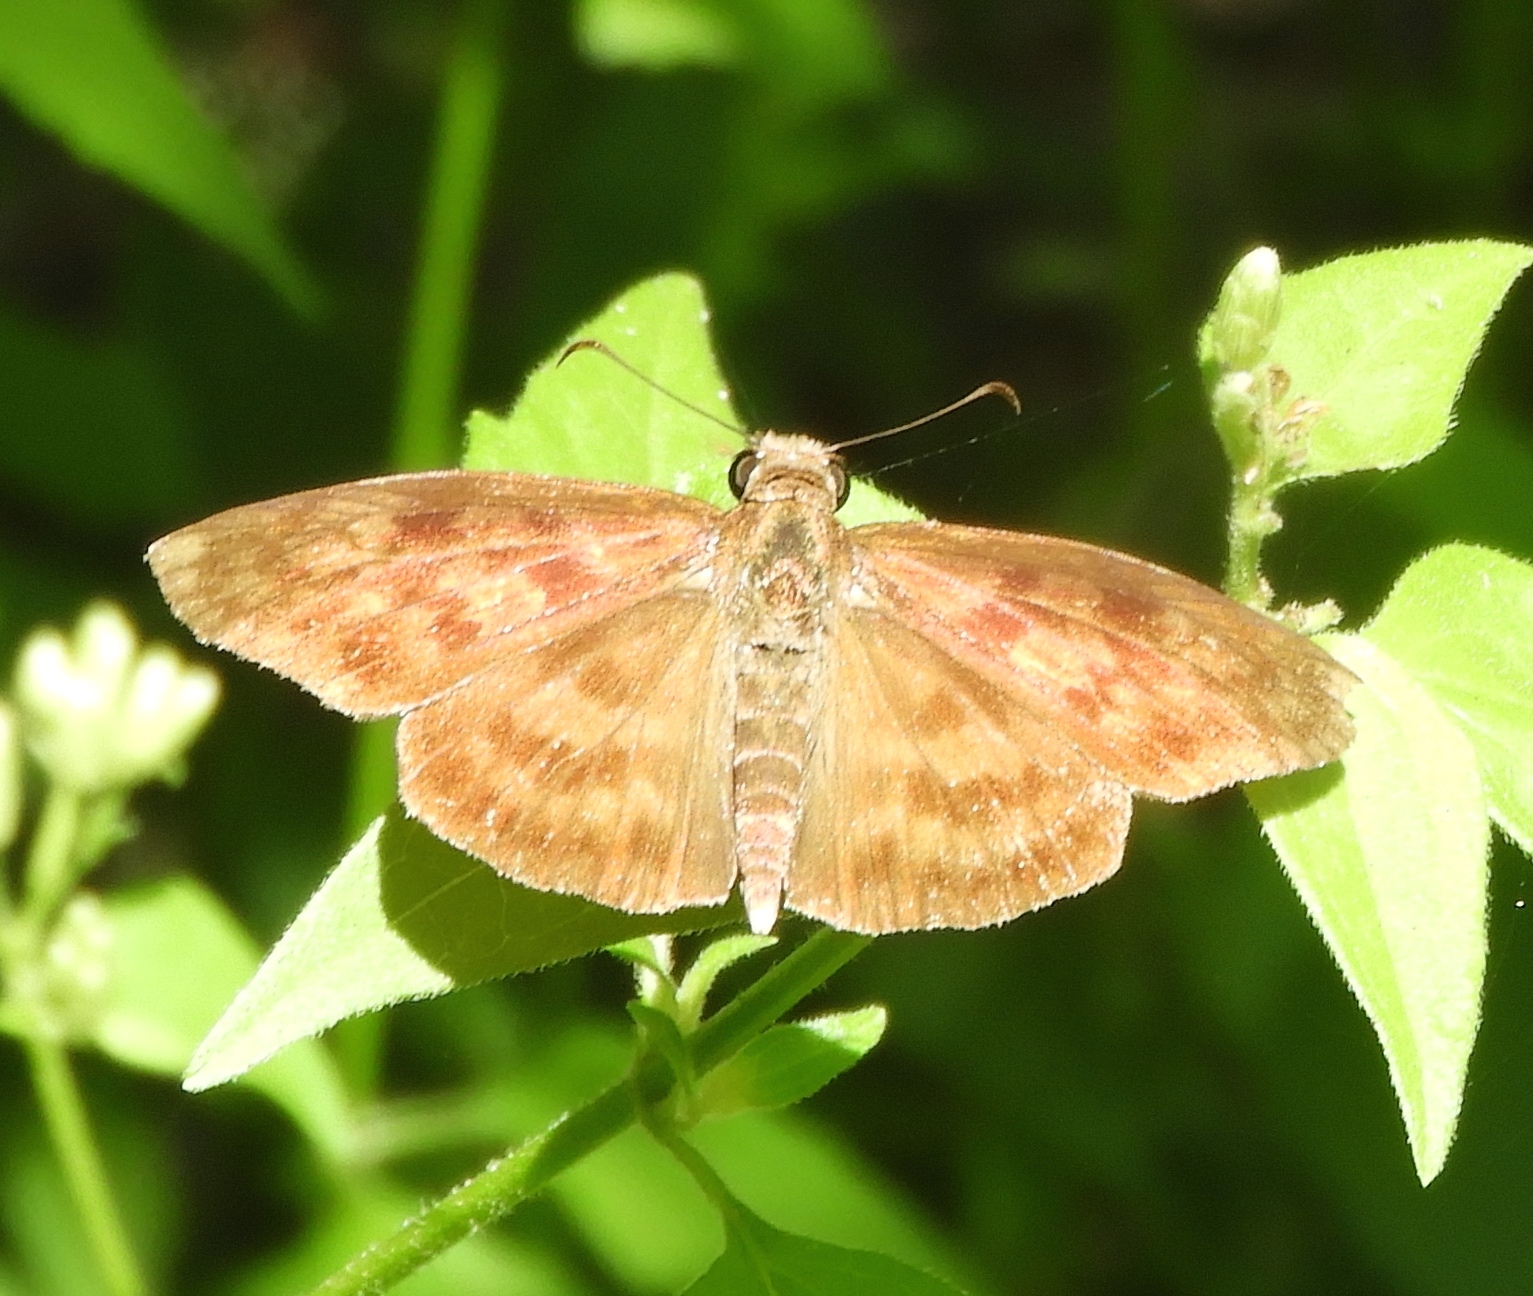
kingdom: Animalia
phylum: Arthropoda
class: Insecta
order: Lepidoptera
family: Hesperiidae
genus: Anastrus
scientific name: Anastrus Echelatus sempiternus
